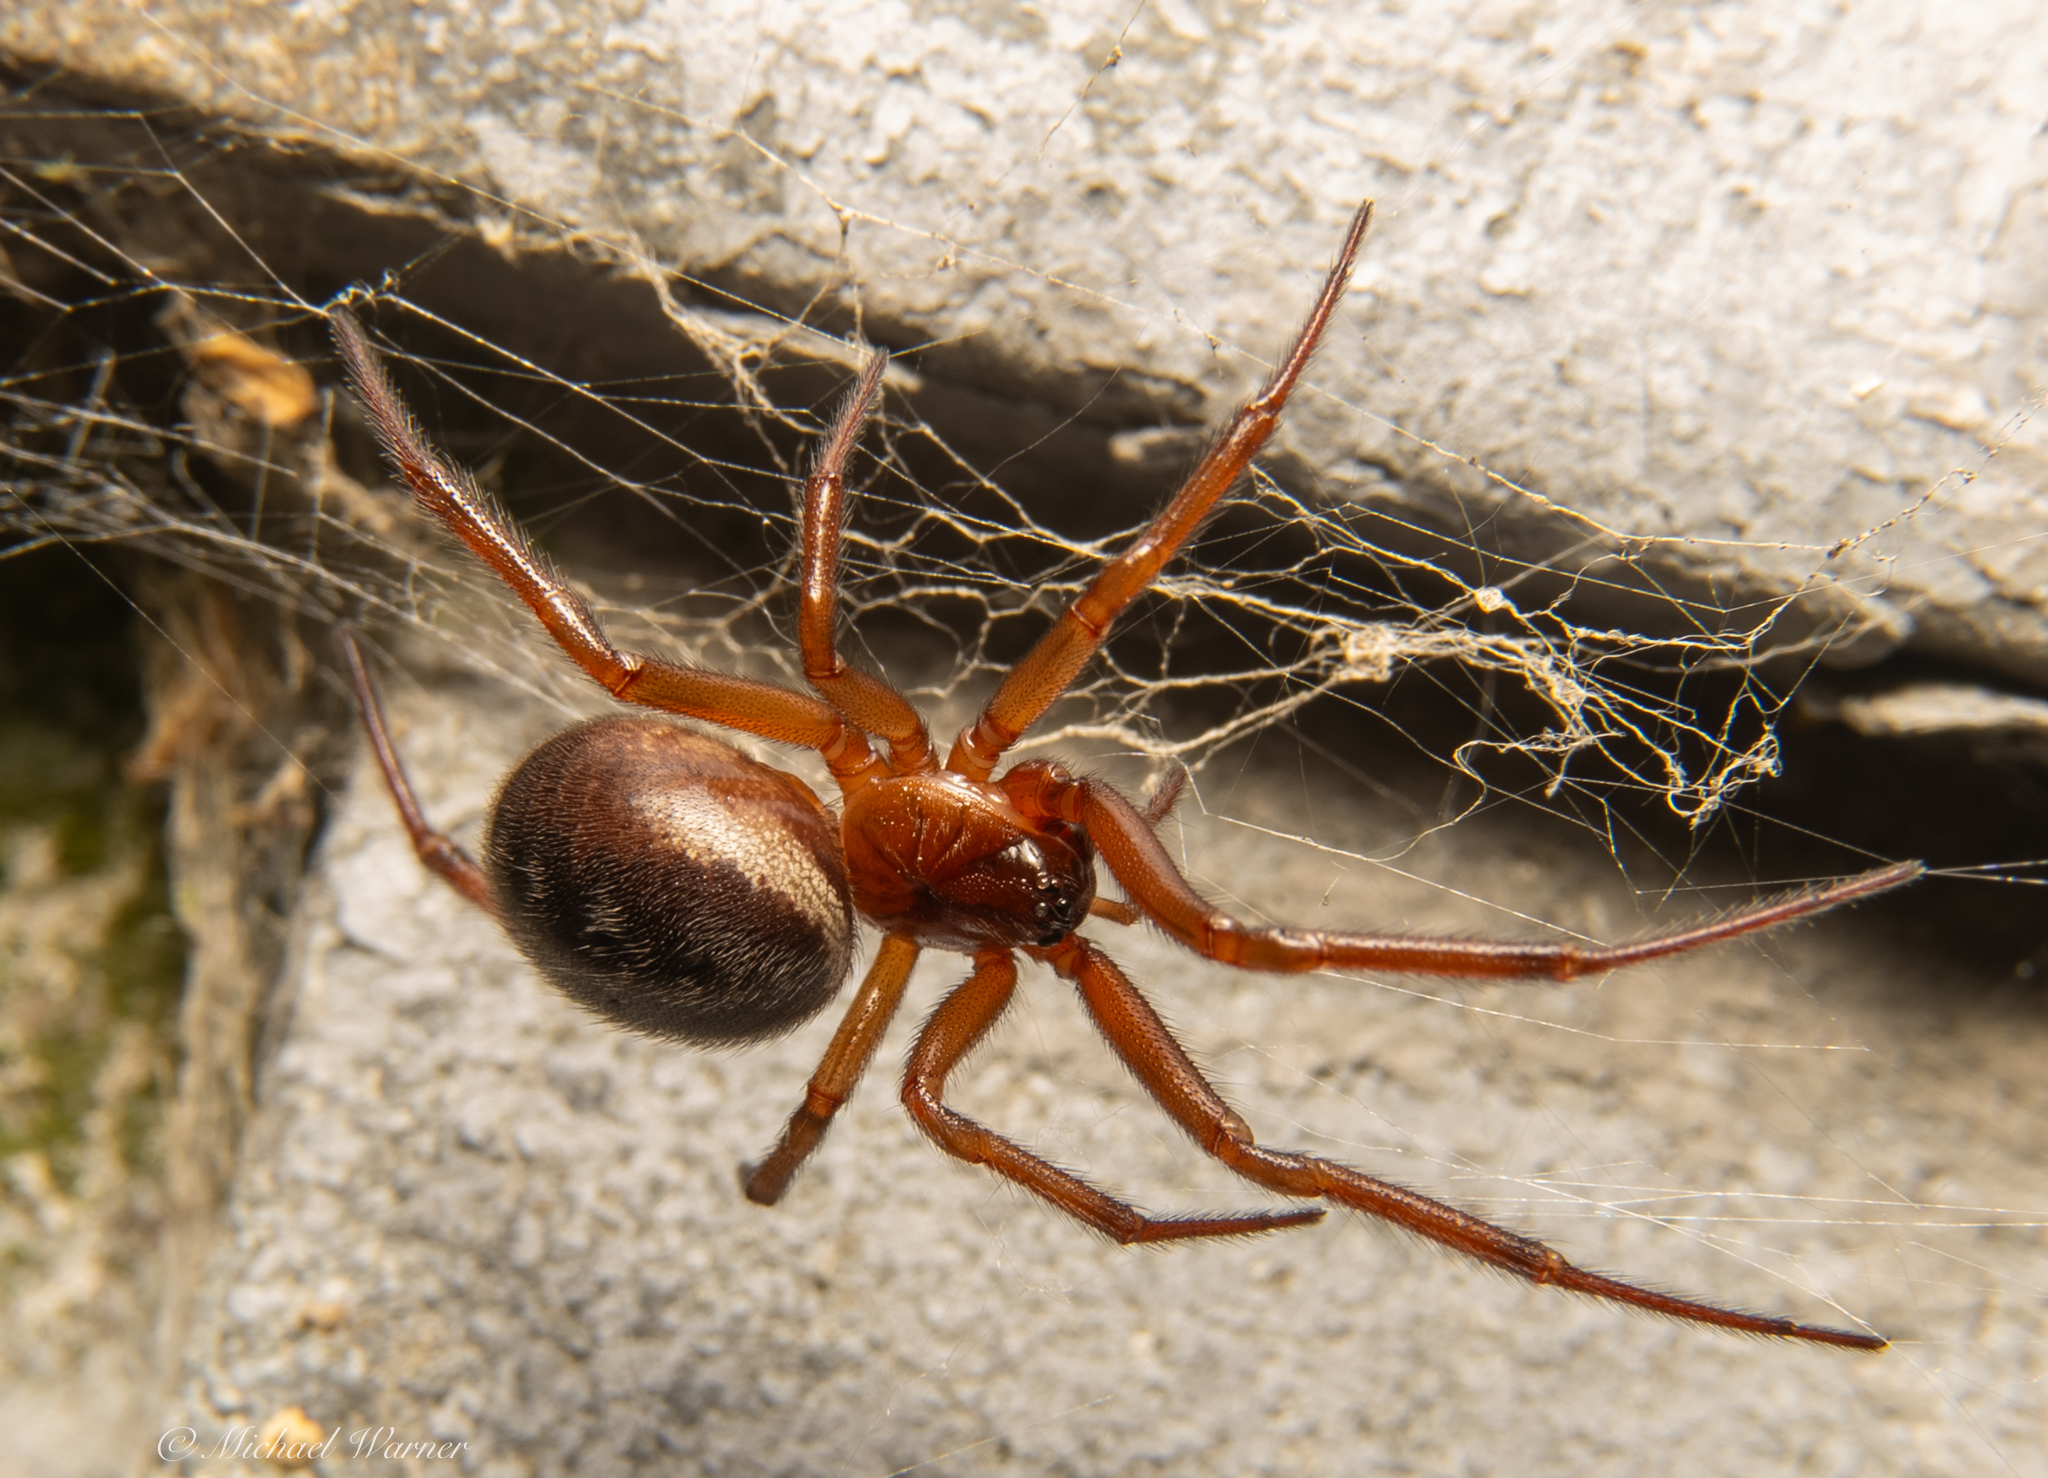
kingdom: Animalia
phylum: Arthropoda
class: Arachnida
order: Araneae
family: Theridiidae
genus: Steatoda
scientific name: Steatoda nobilis
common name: Cobweb weaver
